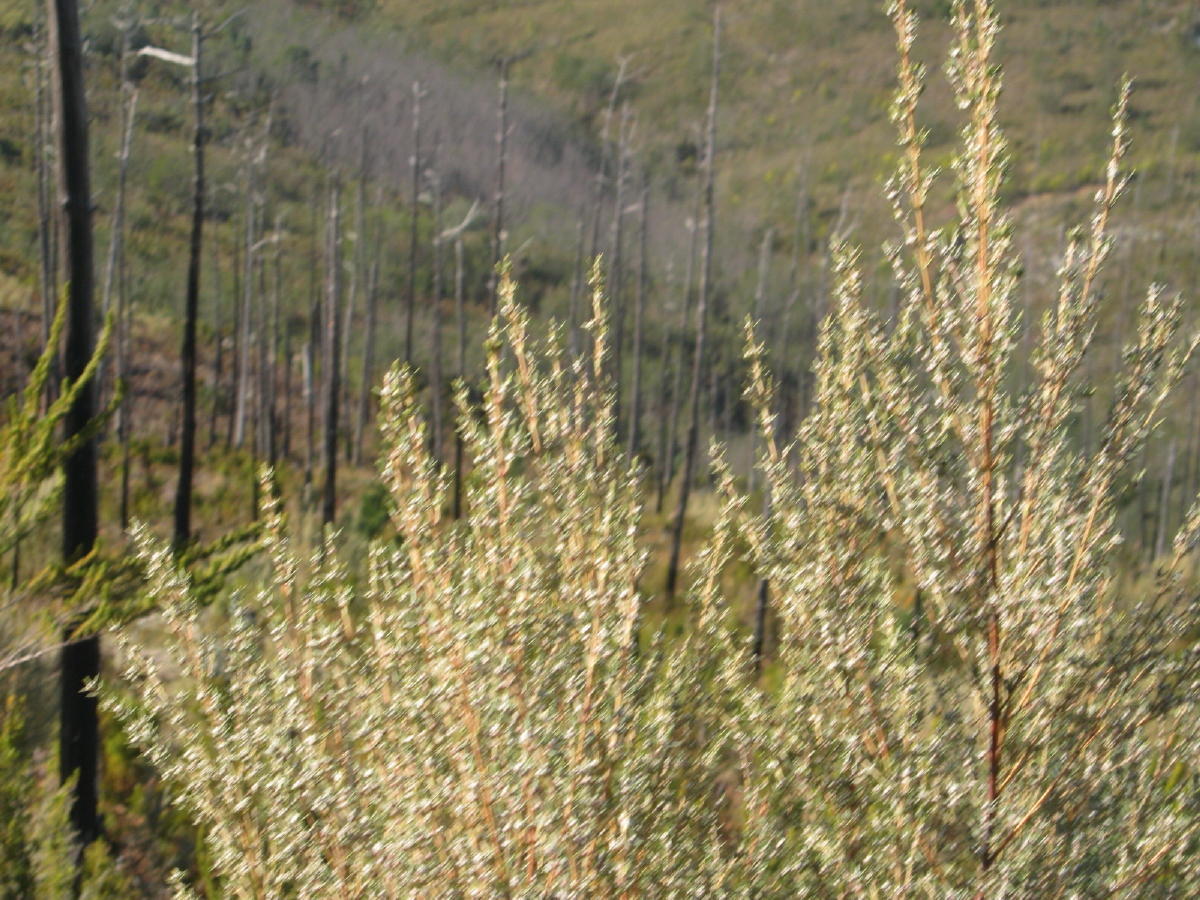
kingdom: Plantae
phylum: Tracheophyta
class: Magnoliopsida
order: Cornales
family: Grubbiaceae
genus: Grubbia
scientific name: Grubbia rosmarinifolia
